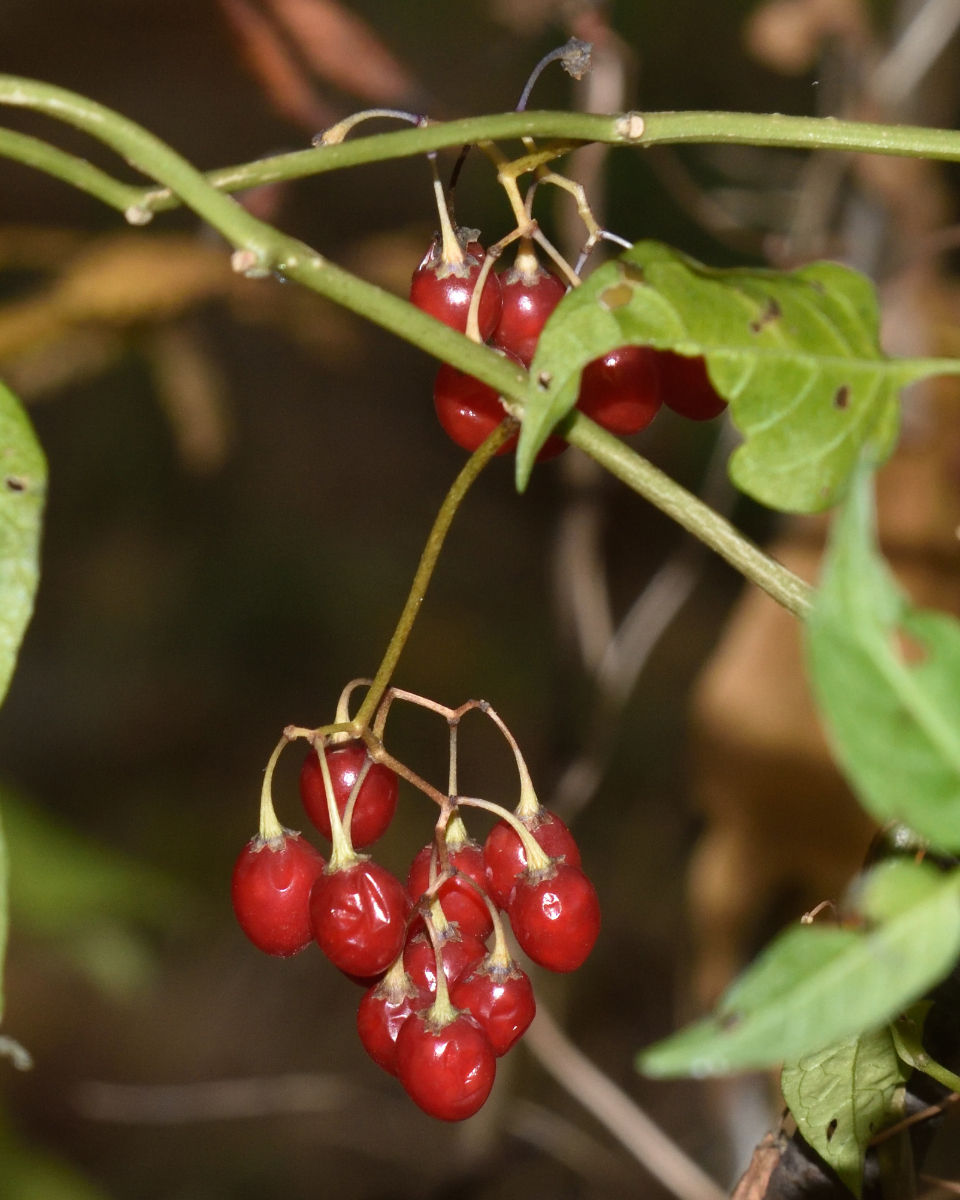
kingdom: Plantae
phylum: Tracheophyta
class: Magnoliopsida
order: Solanales
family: Solanaceae
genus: Solanum
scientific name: Solanum dulcamara
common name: Climbing nightshade
